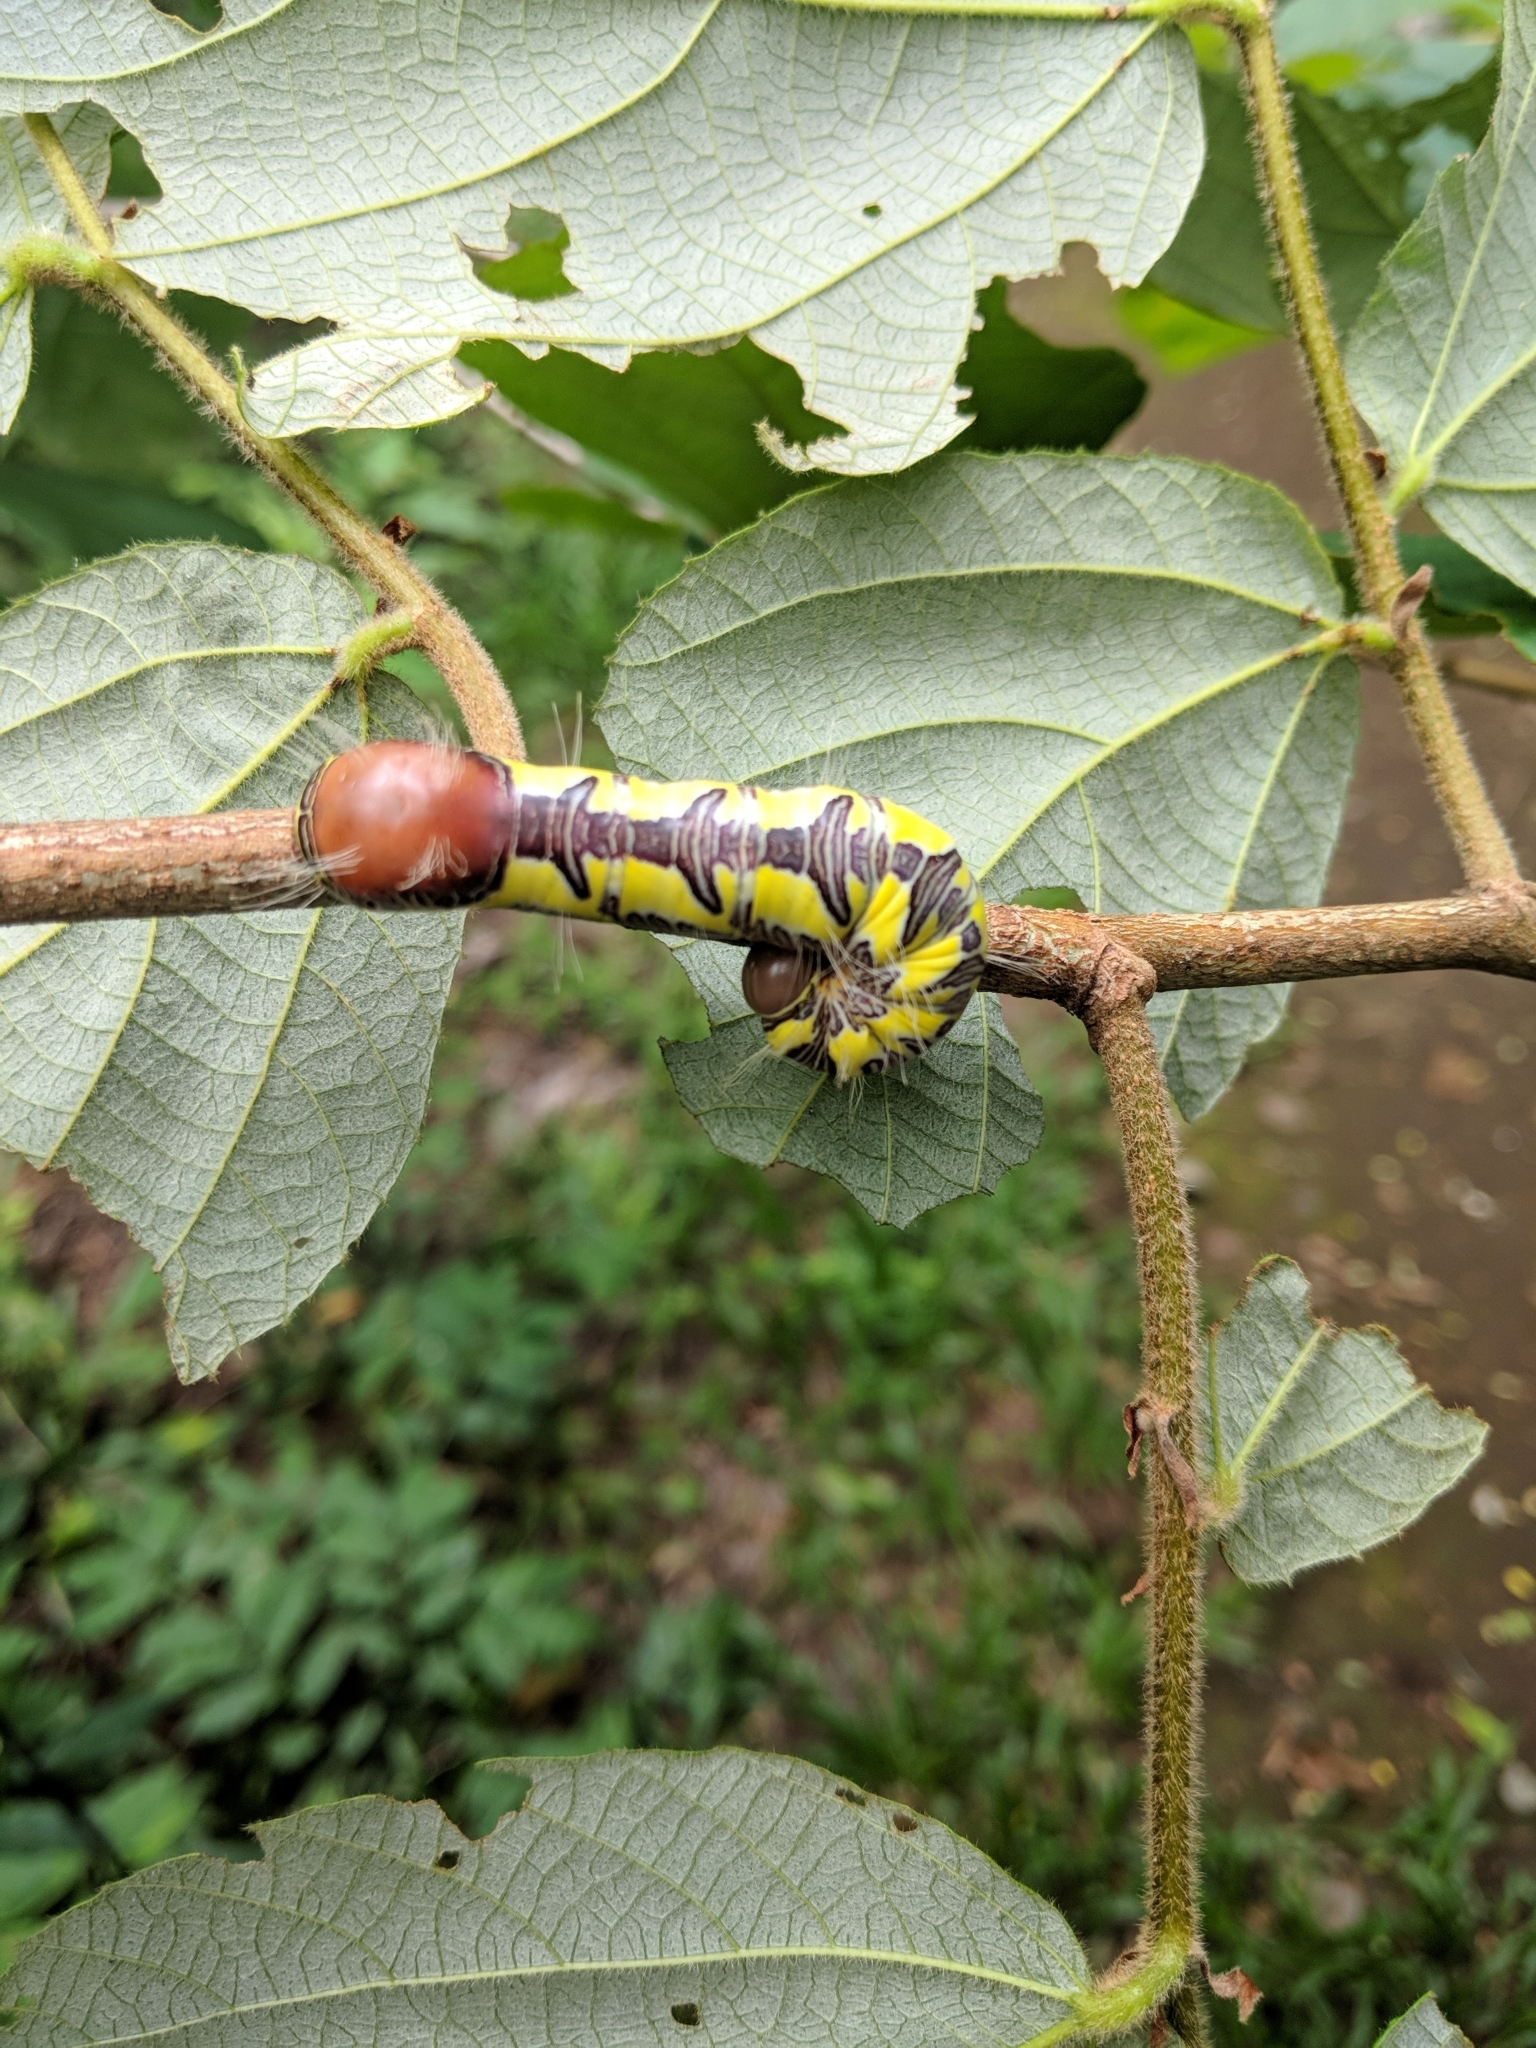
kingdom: Animalia
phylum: Arthropoda
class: Insecta
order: Lepidoptera
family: Notodontidae
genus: Truncaptera
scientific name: Truncaptera guatemalensis
